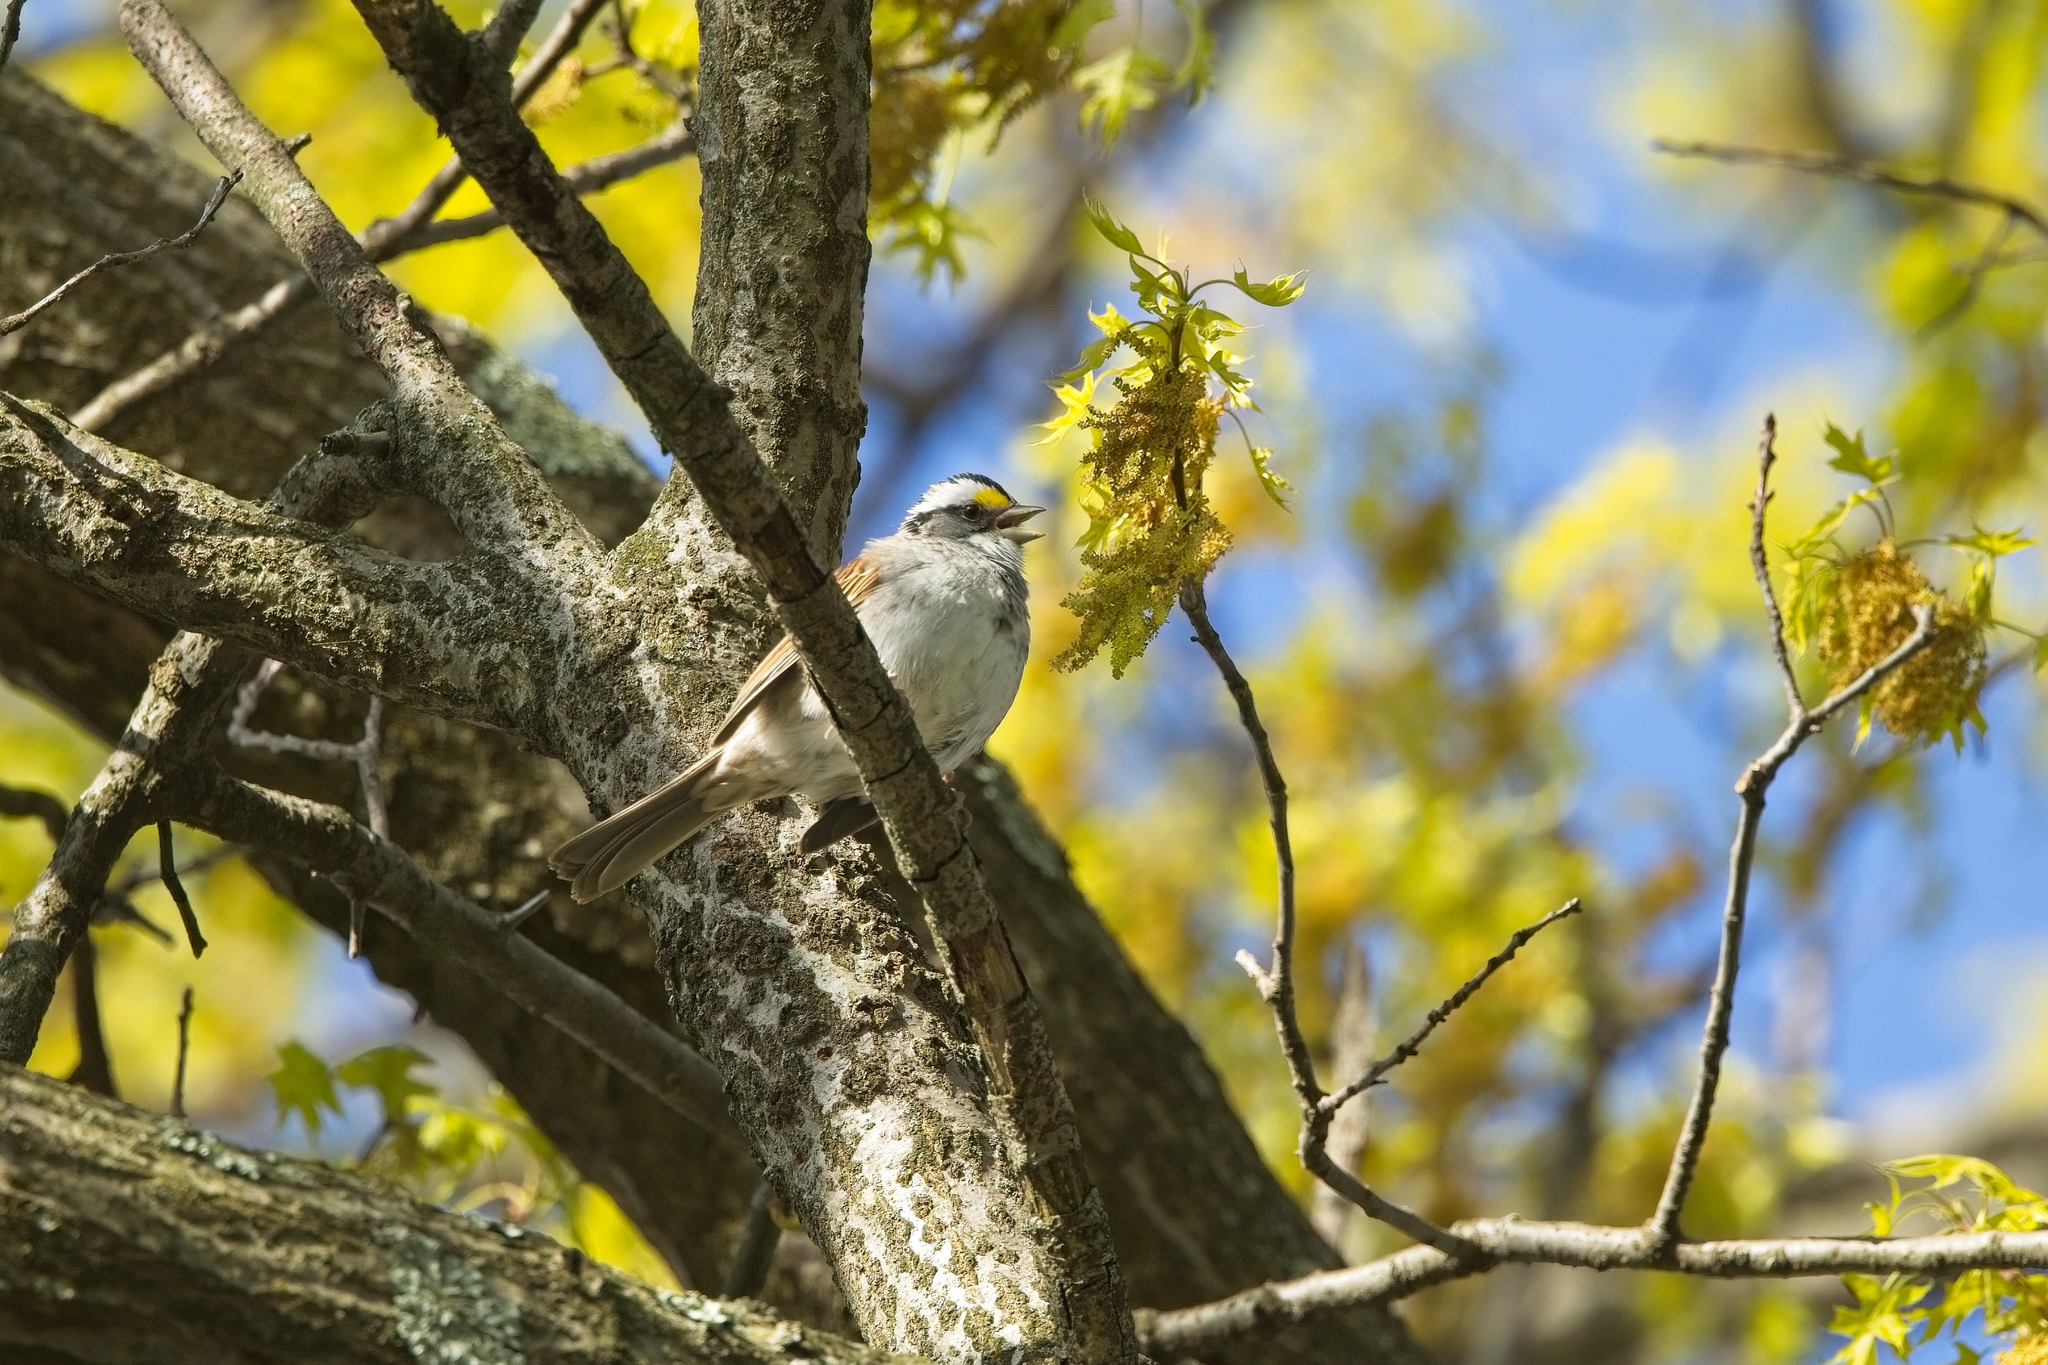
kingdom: Animalia
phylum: Chordata
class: Aves
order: Passeriformes
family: Passerellidae
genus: Zonotrichia
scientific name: Zonotrichia albicollis
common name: White-throated sparrow
